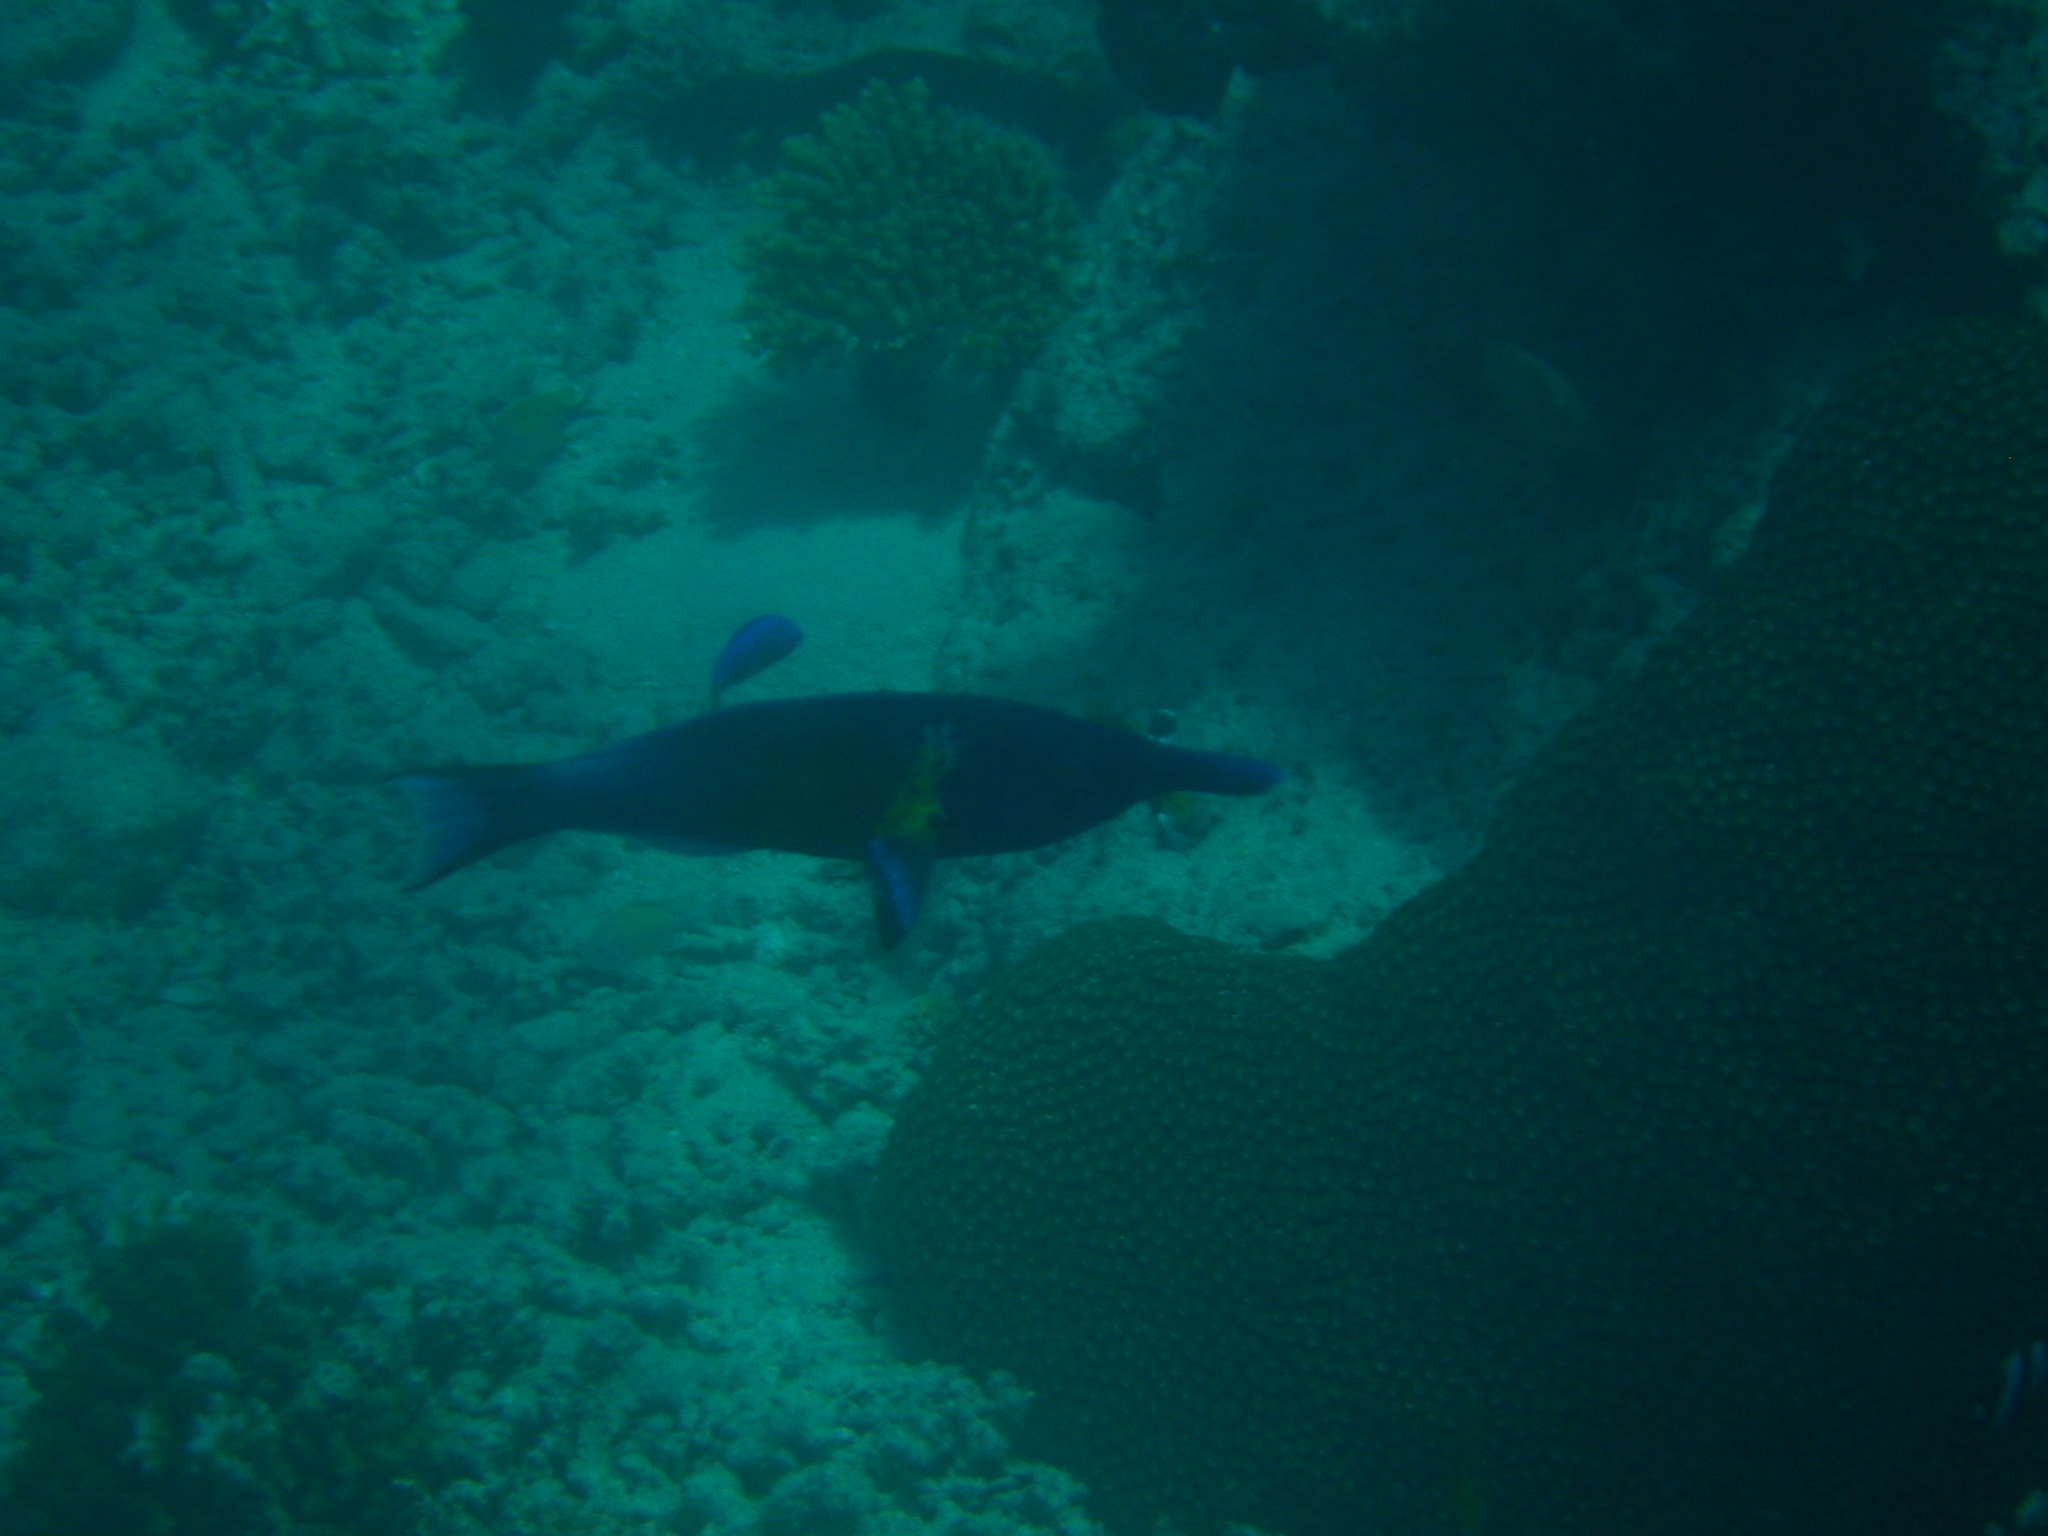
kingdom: Animalia
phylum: Chordata
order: Perciformes
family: Labridae
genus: Gomphosus
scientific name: Gomphosus varius
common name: Bird wrasse
